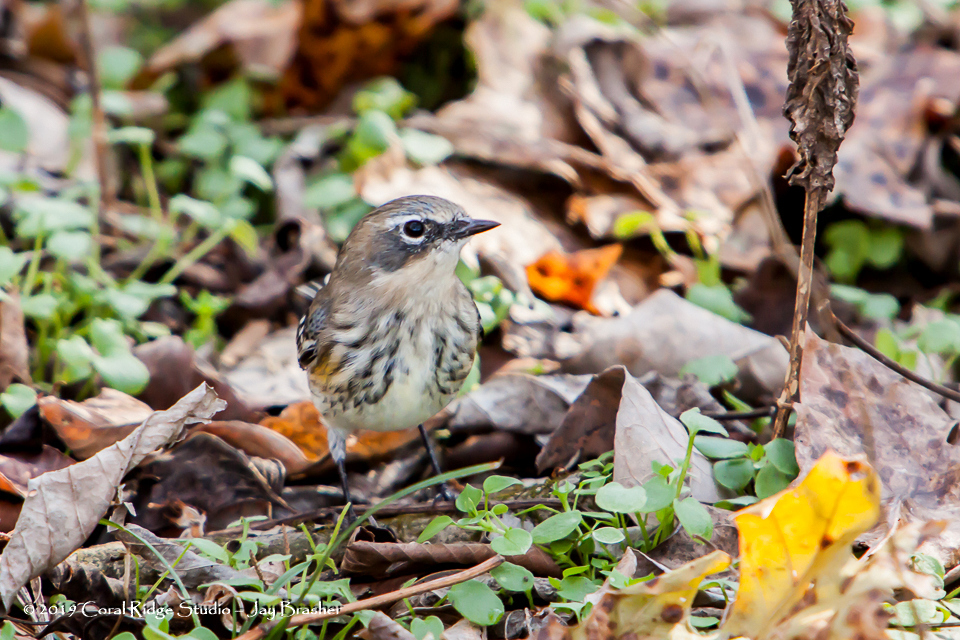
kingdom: Animalia
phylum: Chordata
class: Aves
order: Passeriformes
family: Parulidae
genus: Setophaga
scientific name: Setophaga coronata
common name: Myrtle warbler
